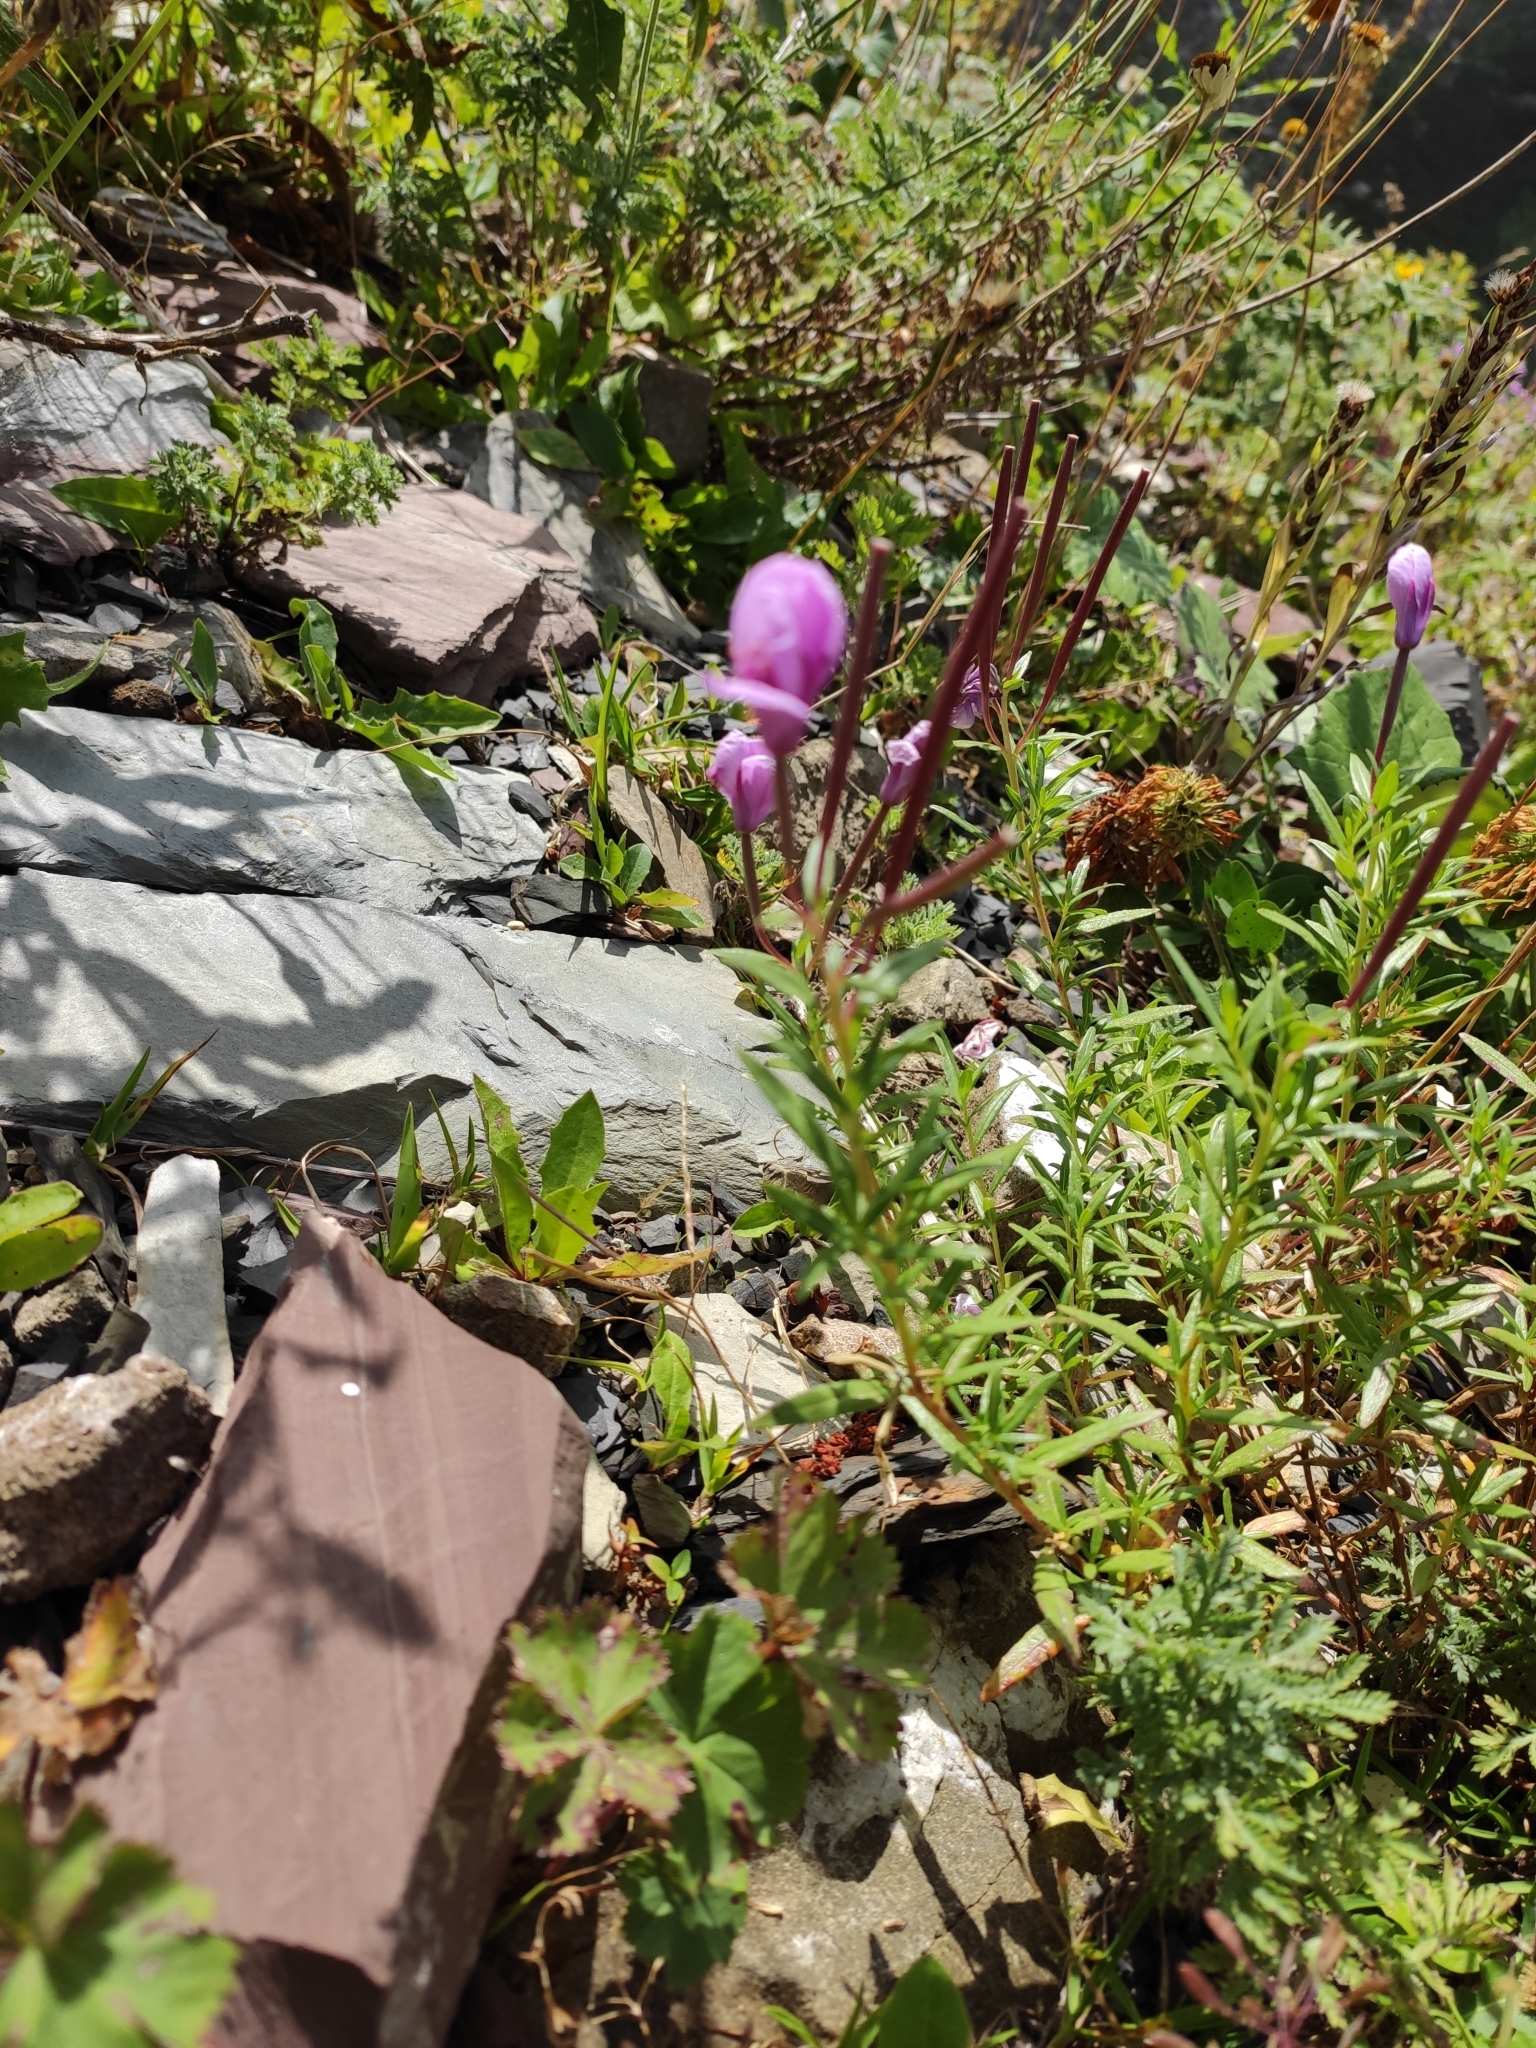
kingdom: Plantae
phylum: Tracheophyta
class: Magnoliopsida
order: Myrtales
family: Onagraceae
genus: Chamaenerion
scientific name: Chamaenerion colchicum
